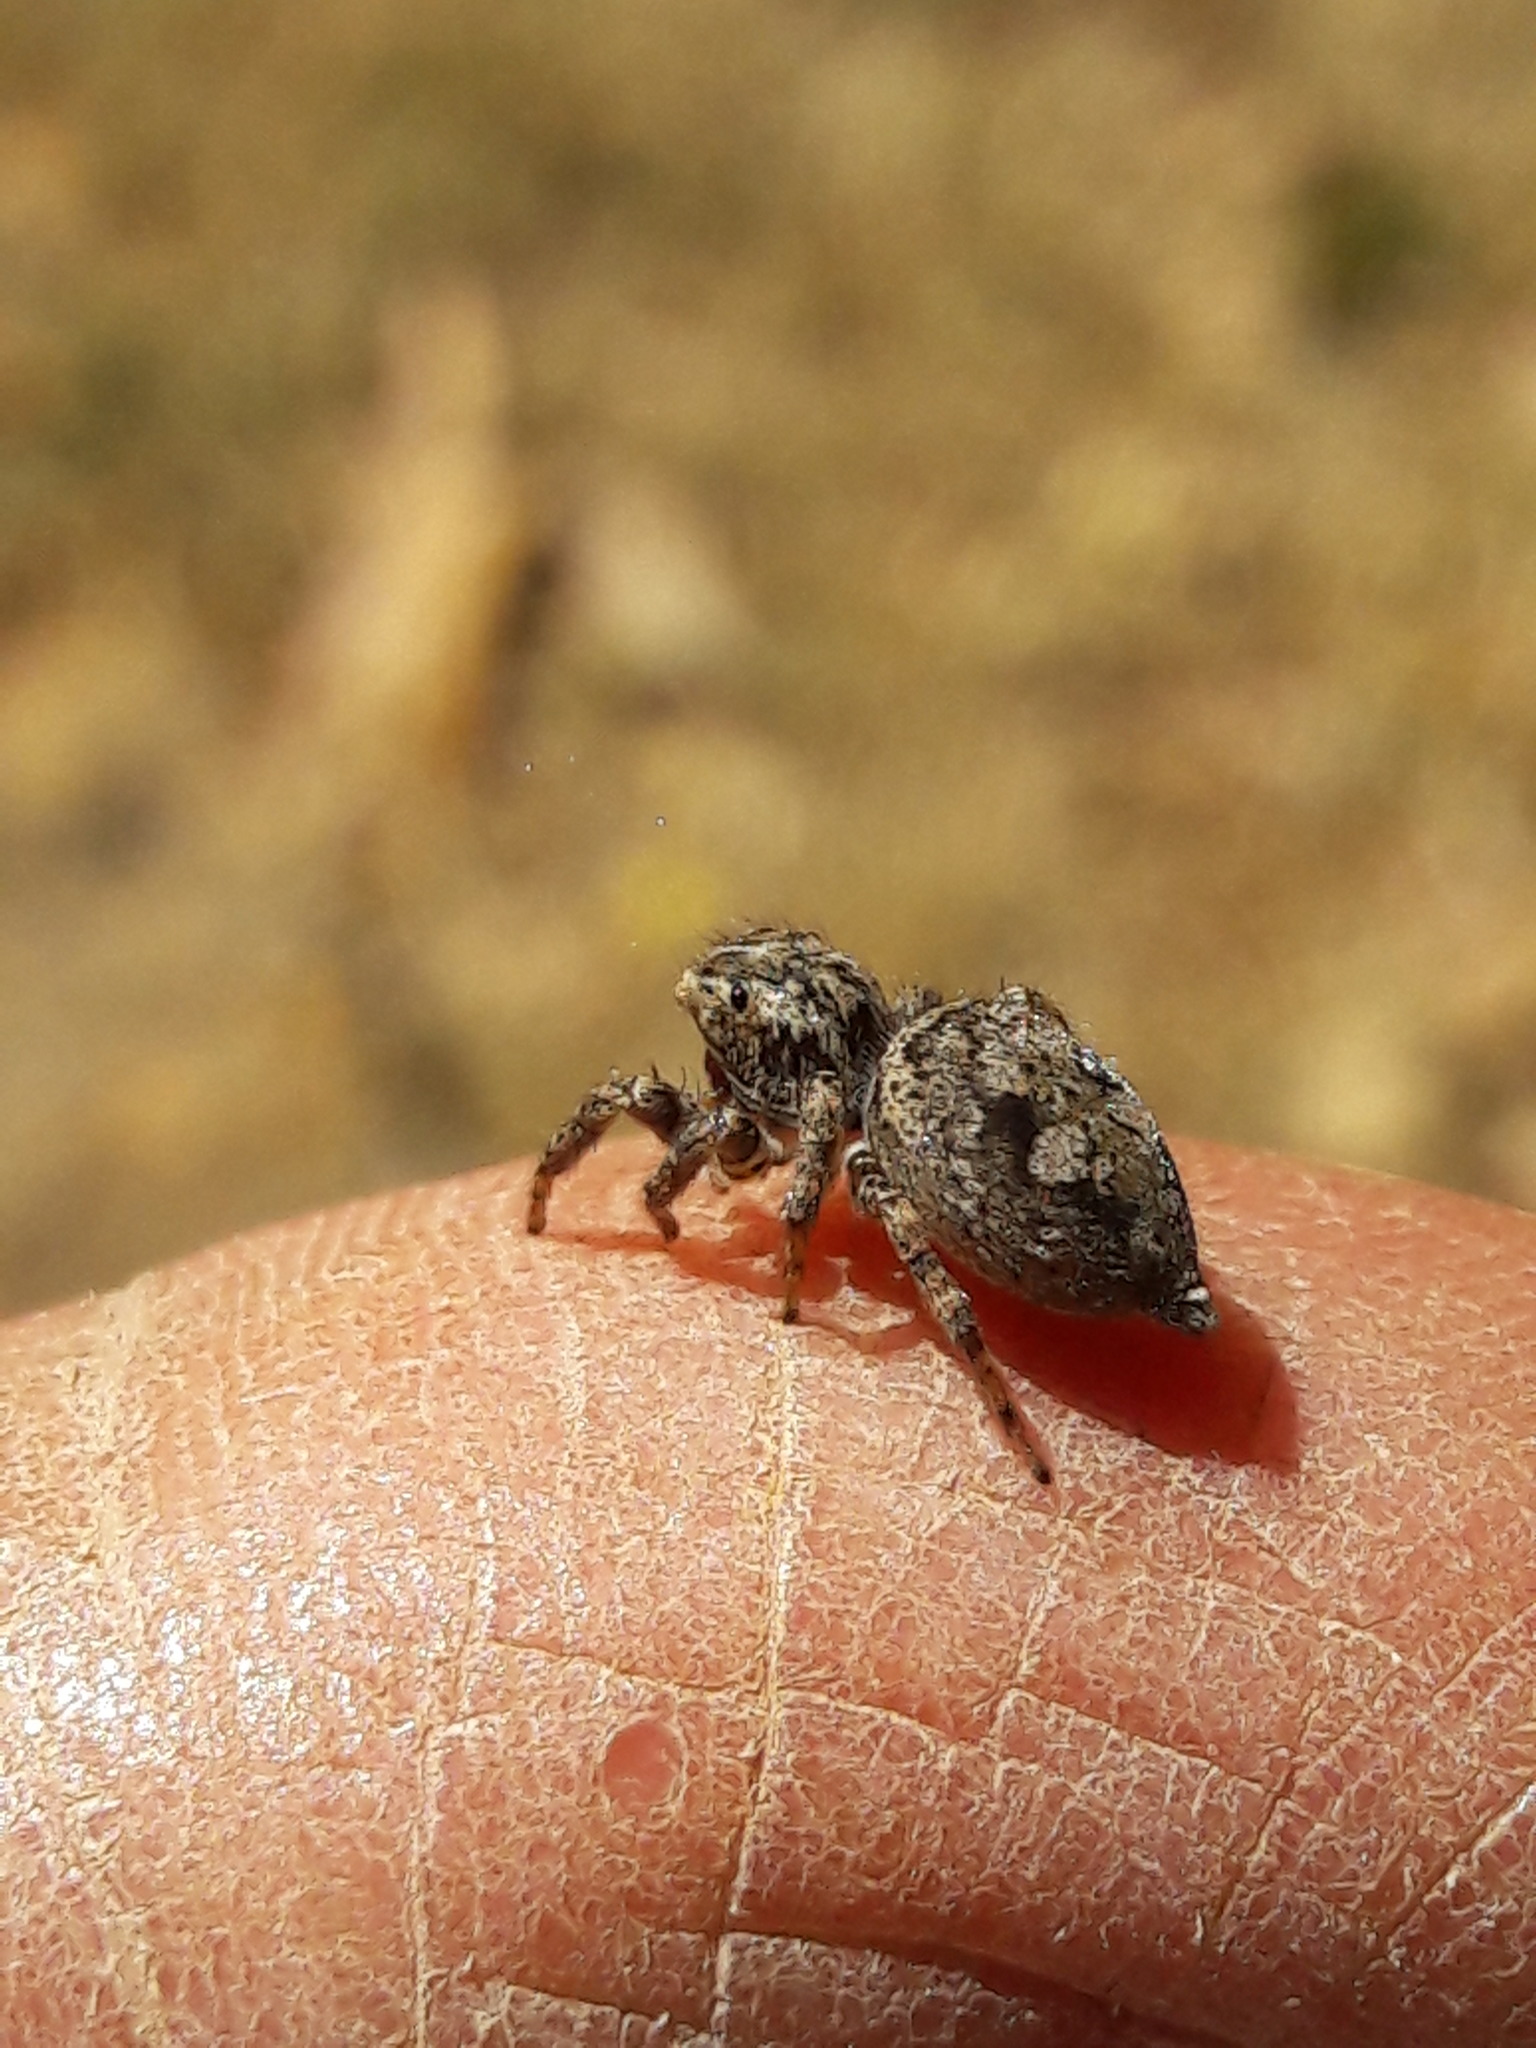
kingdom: Animalia
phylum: Arthropoda
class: Arachnida
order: Araneae
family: Salticidae
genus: Sumampattus
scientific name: Sumampattus quinqueradiatus
